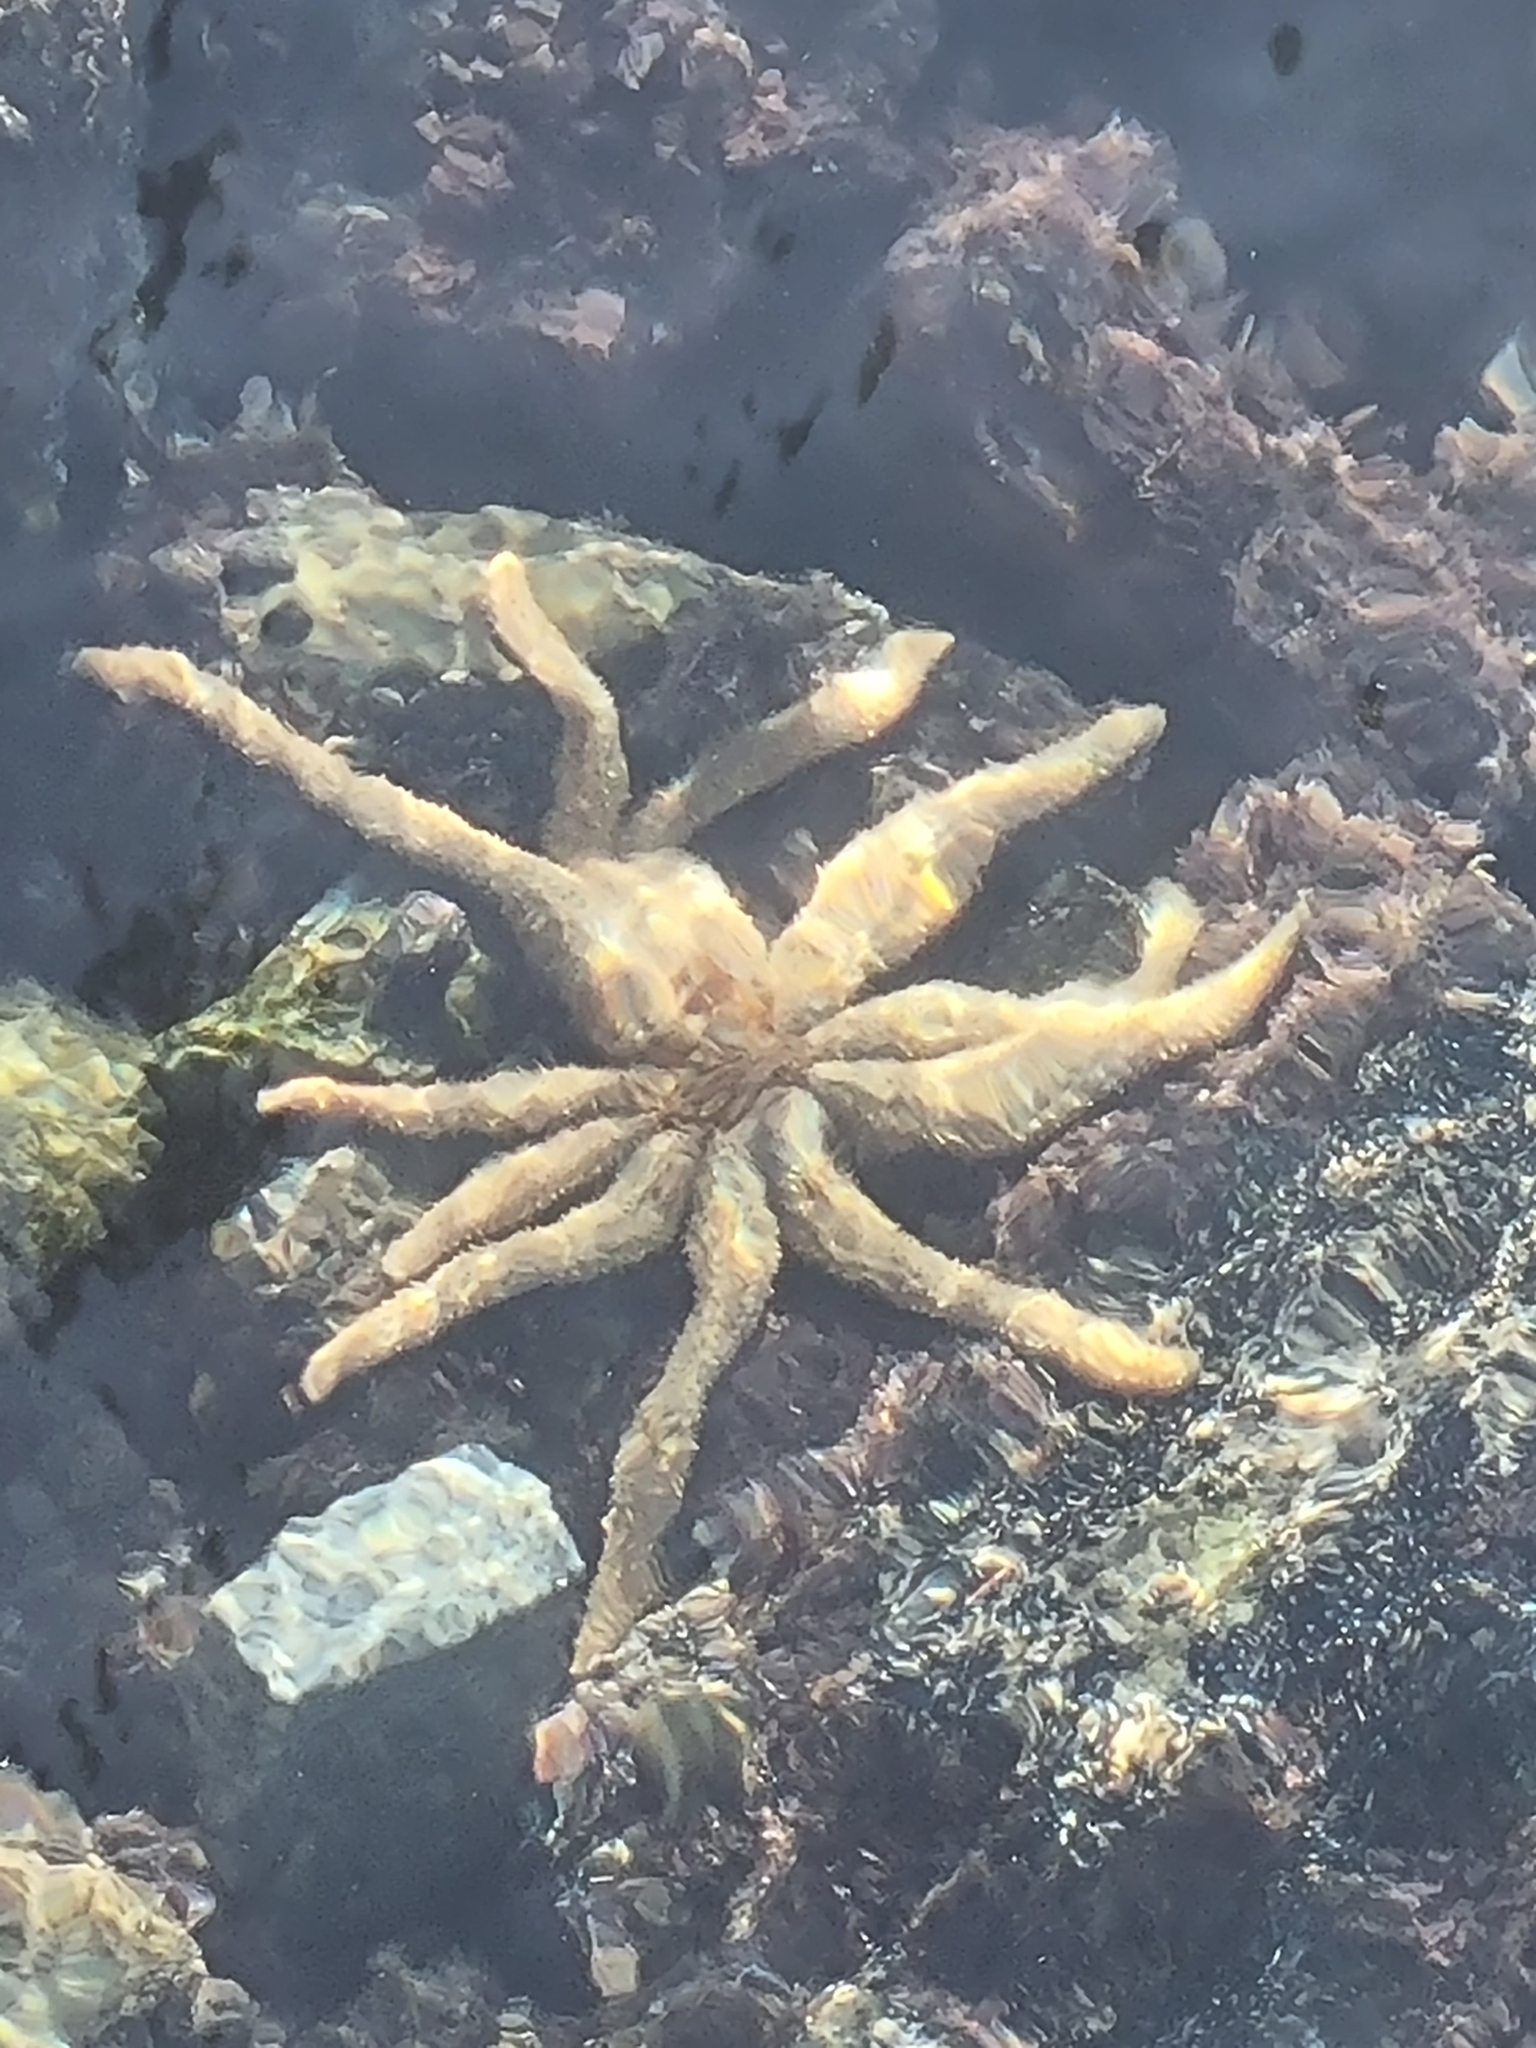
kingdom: Animalia
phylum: Echinodermata
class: Asteroidea
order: Forcipulatida
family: Asteriidae
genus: Coscinasterias
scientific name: Coscinasterias muricata
